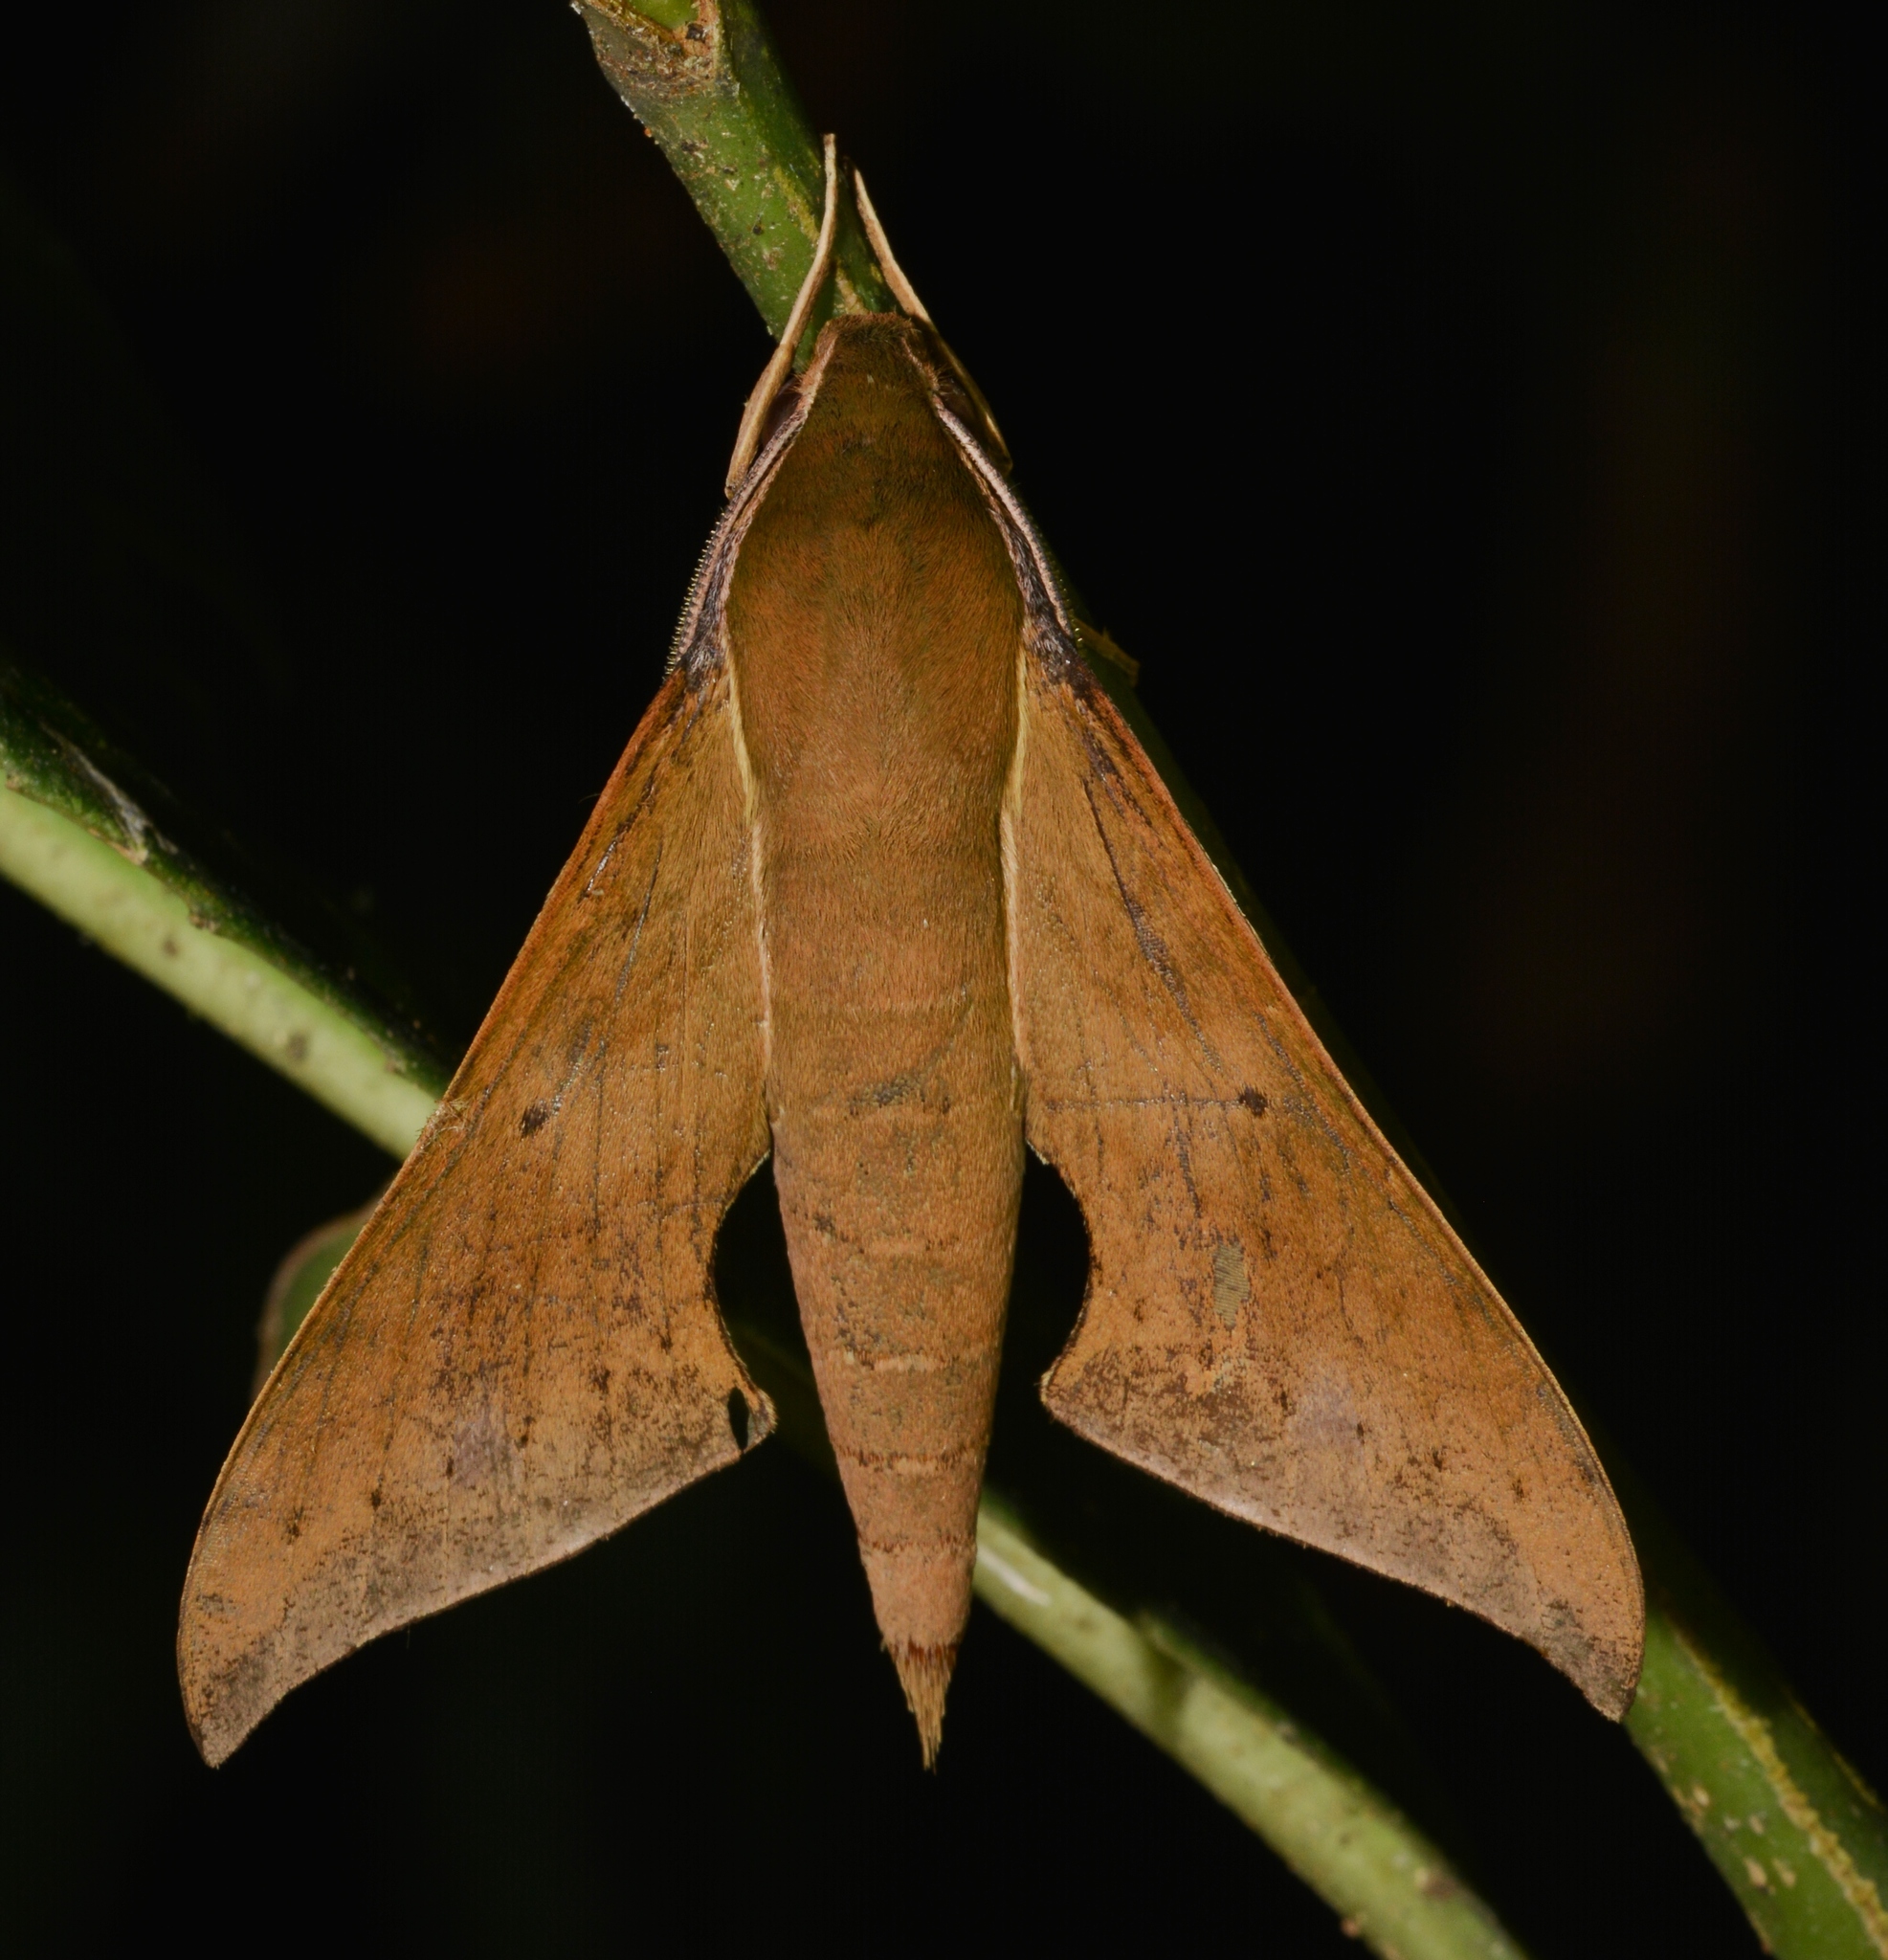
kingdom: Animalia
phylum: Arthropoda
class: Insecta
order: Lepidoptera
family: Sphingidae
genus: Xylophanes
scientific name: Xylophanes hannemanni
